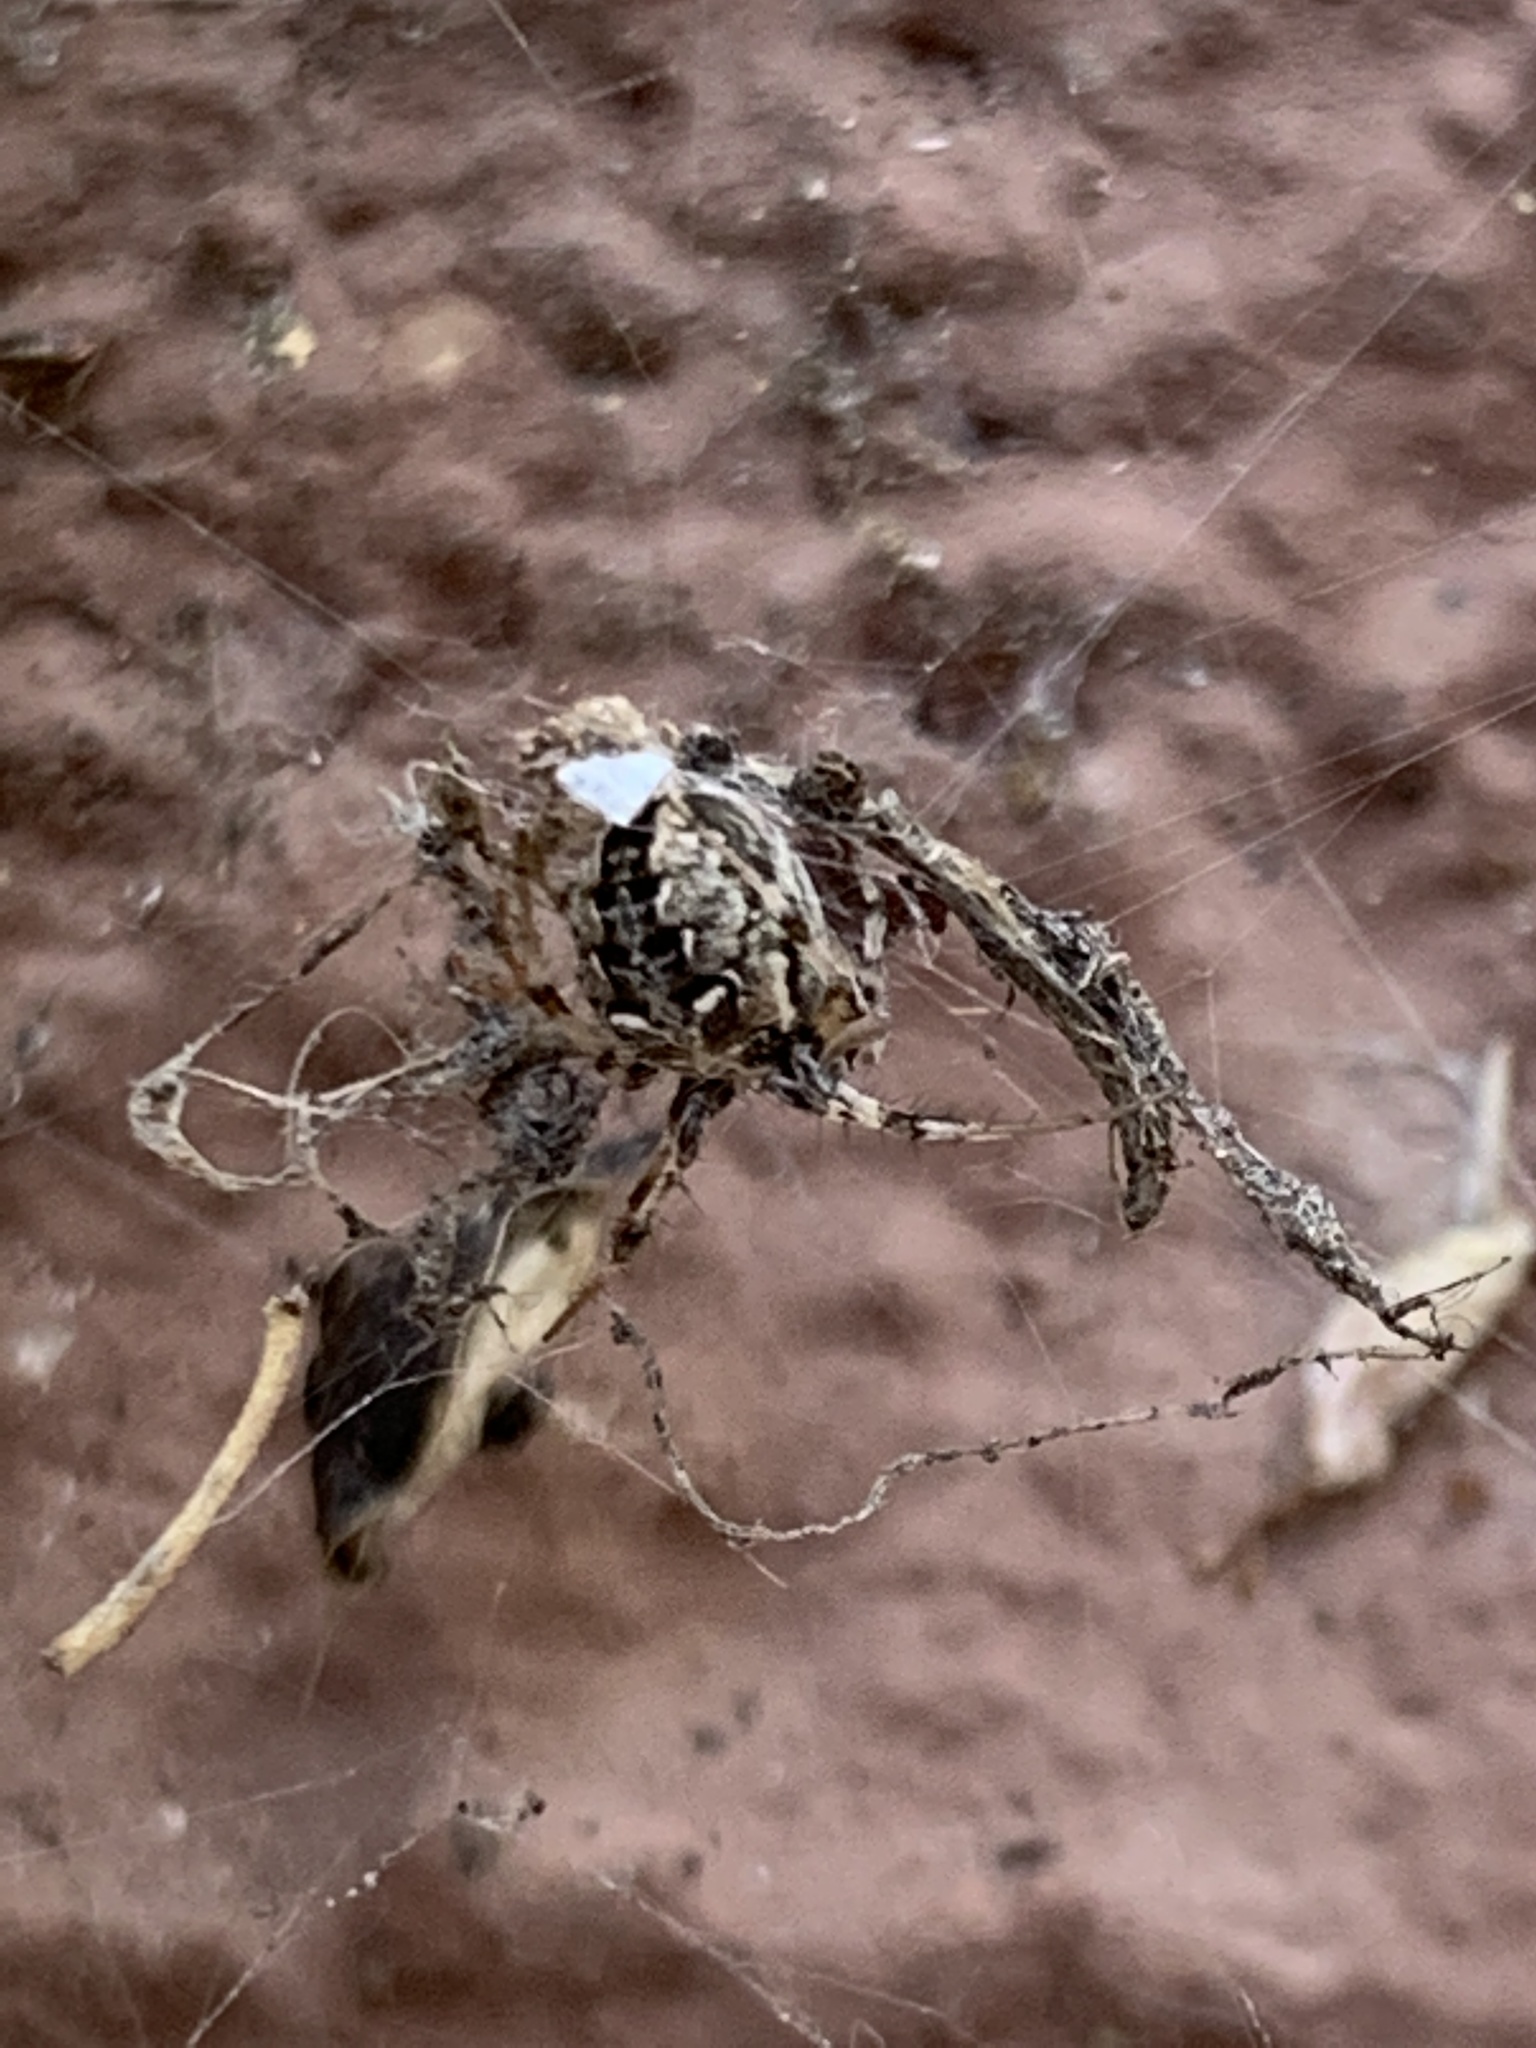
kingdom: Animalia
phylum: Arthropoda
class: Arachnida
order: Araneae
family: Araneidae
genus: Metepeira
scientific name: Metepeira
